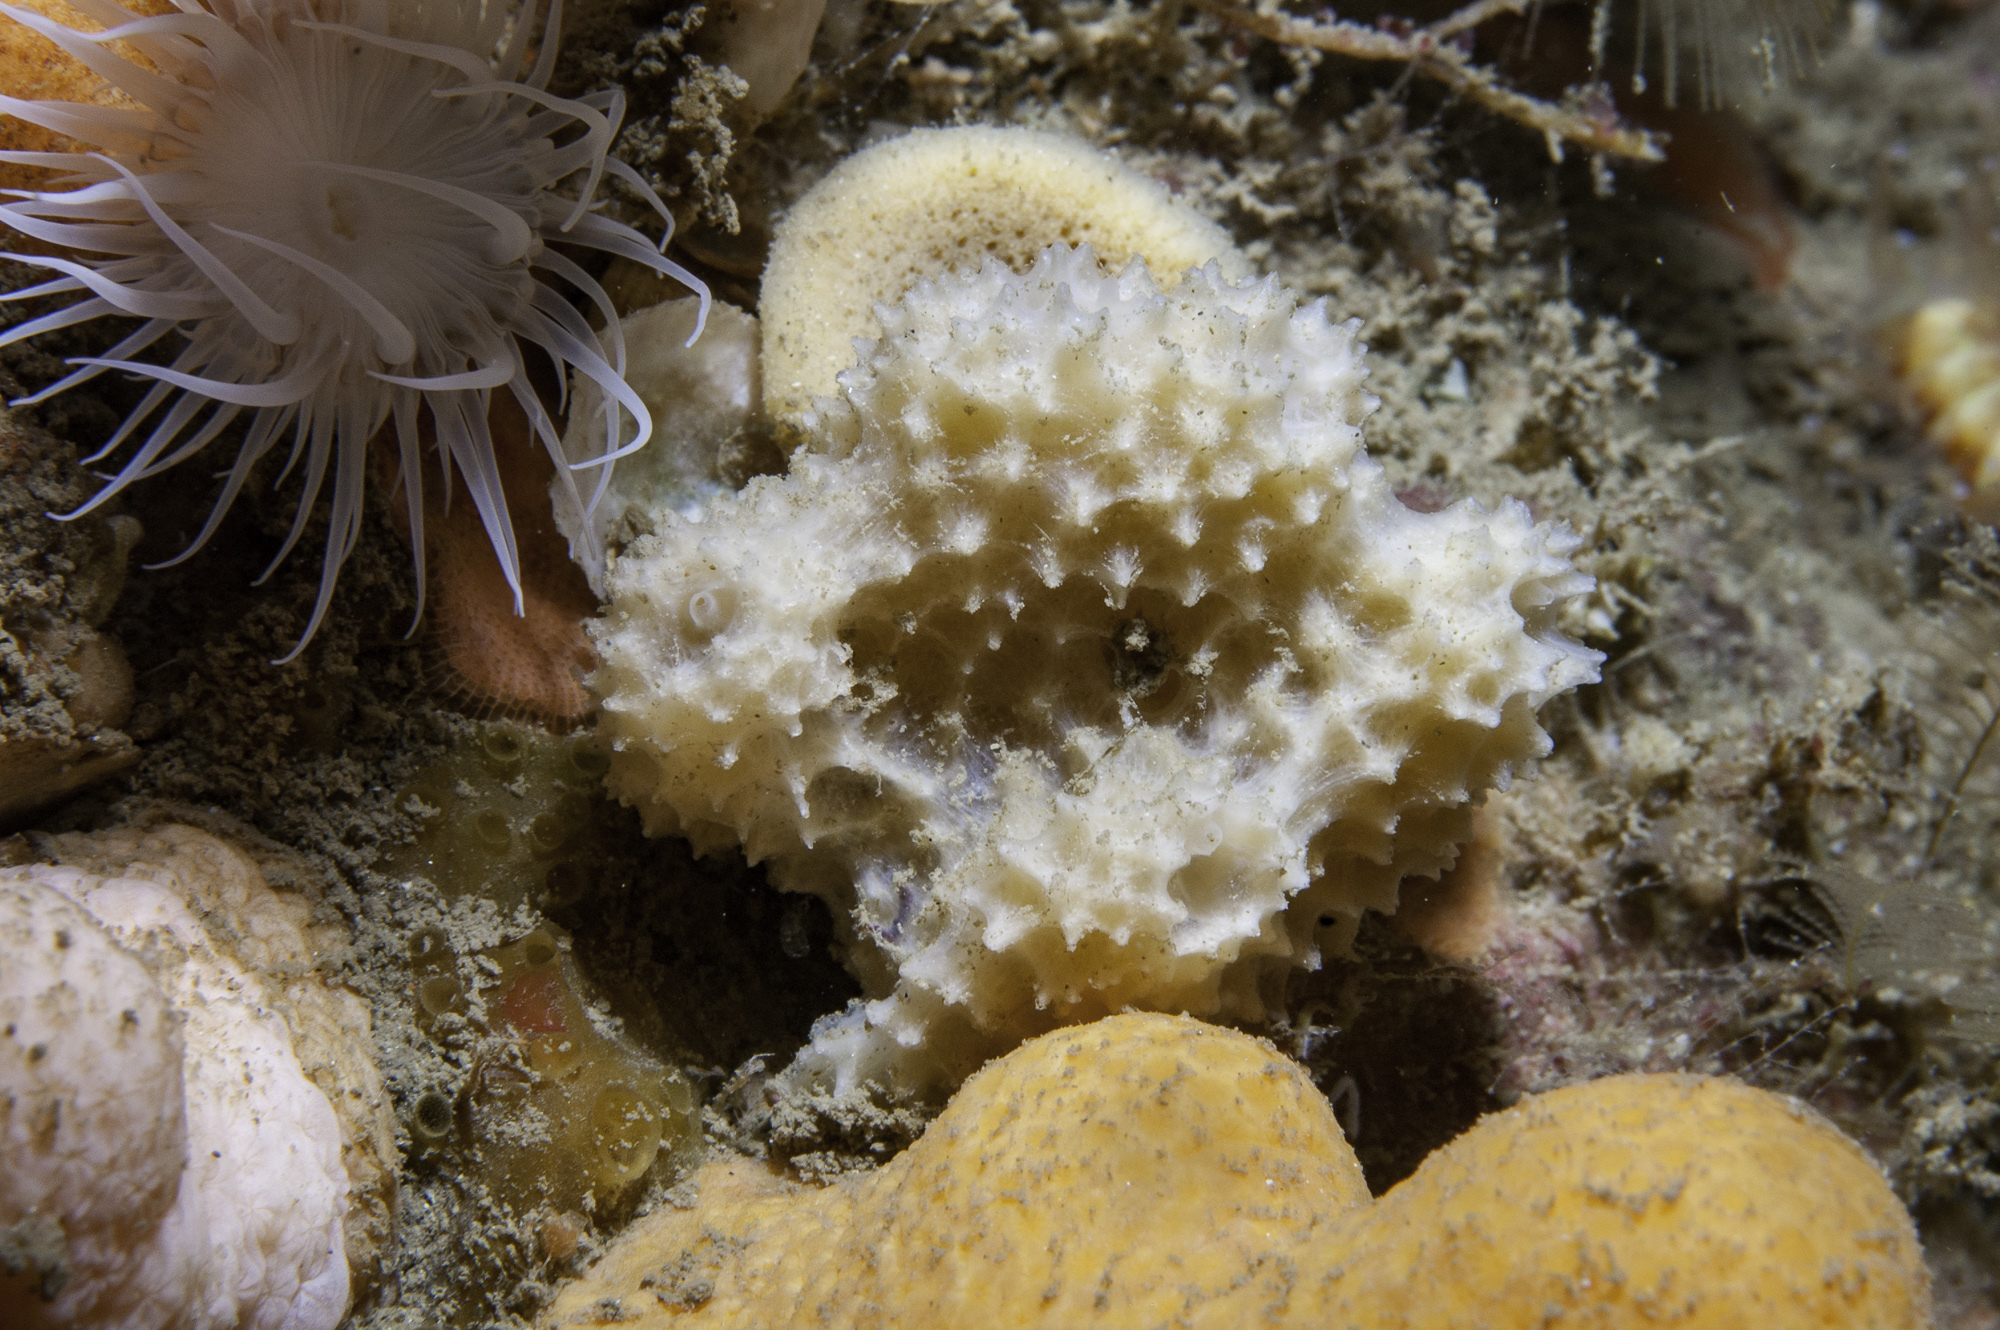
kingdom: Animalia
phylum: Porifera
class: Demospongiae
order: Dictyoceratida
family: Dysideidae
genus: Dysidea
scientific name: Dysidea fragilis
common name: Goosebump sponge
